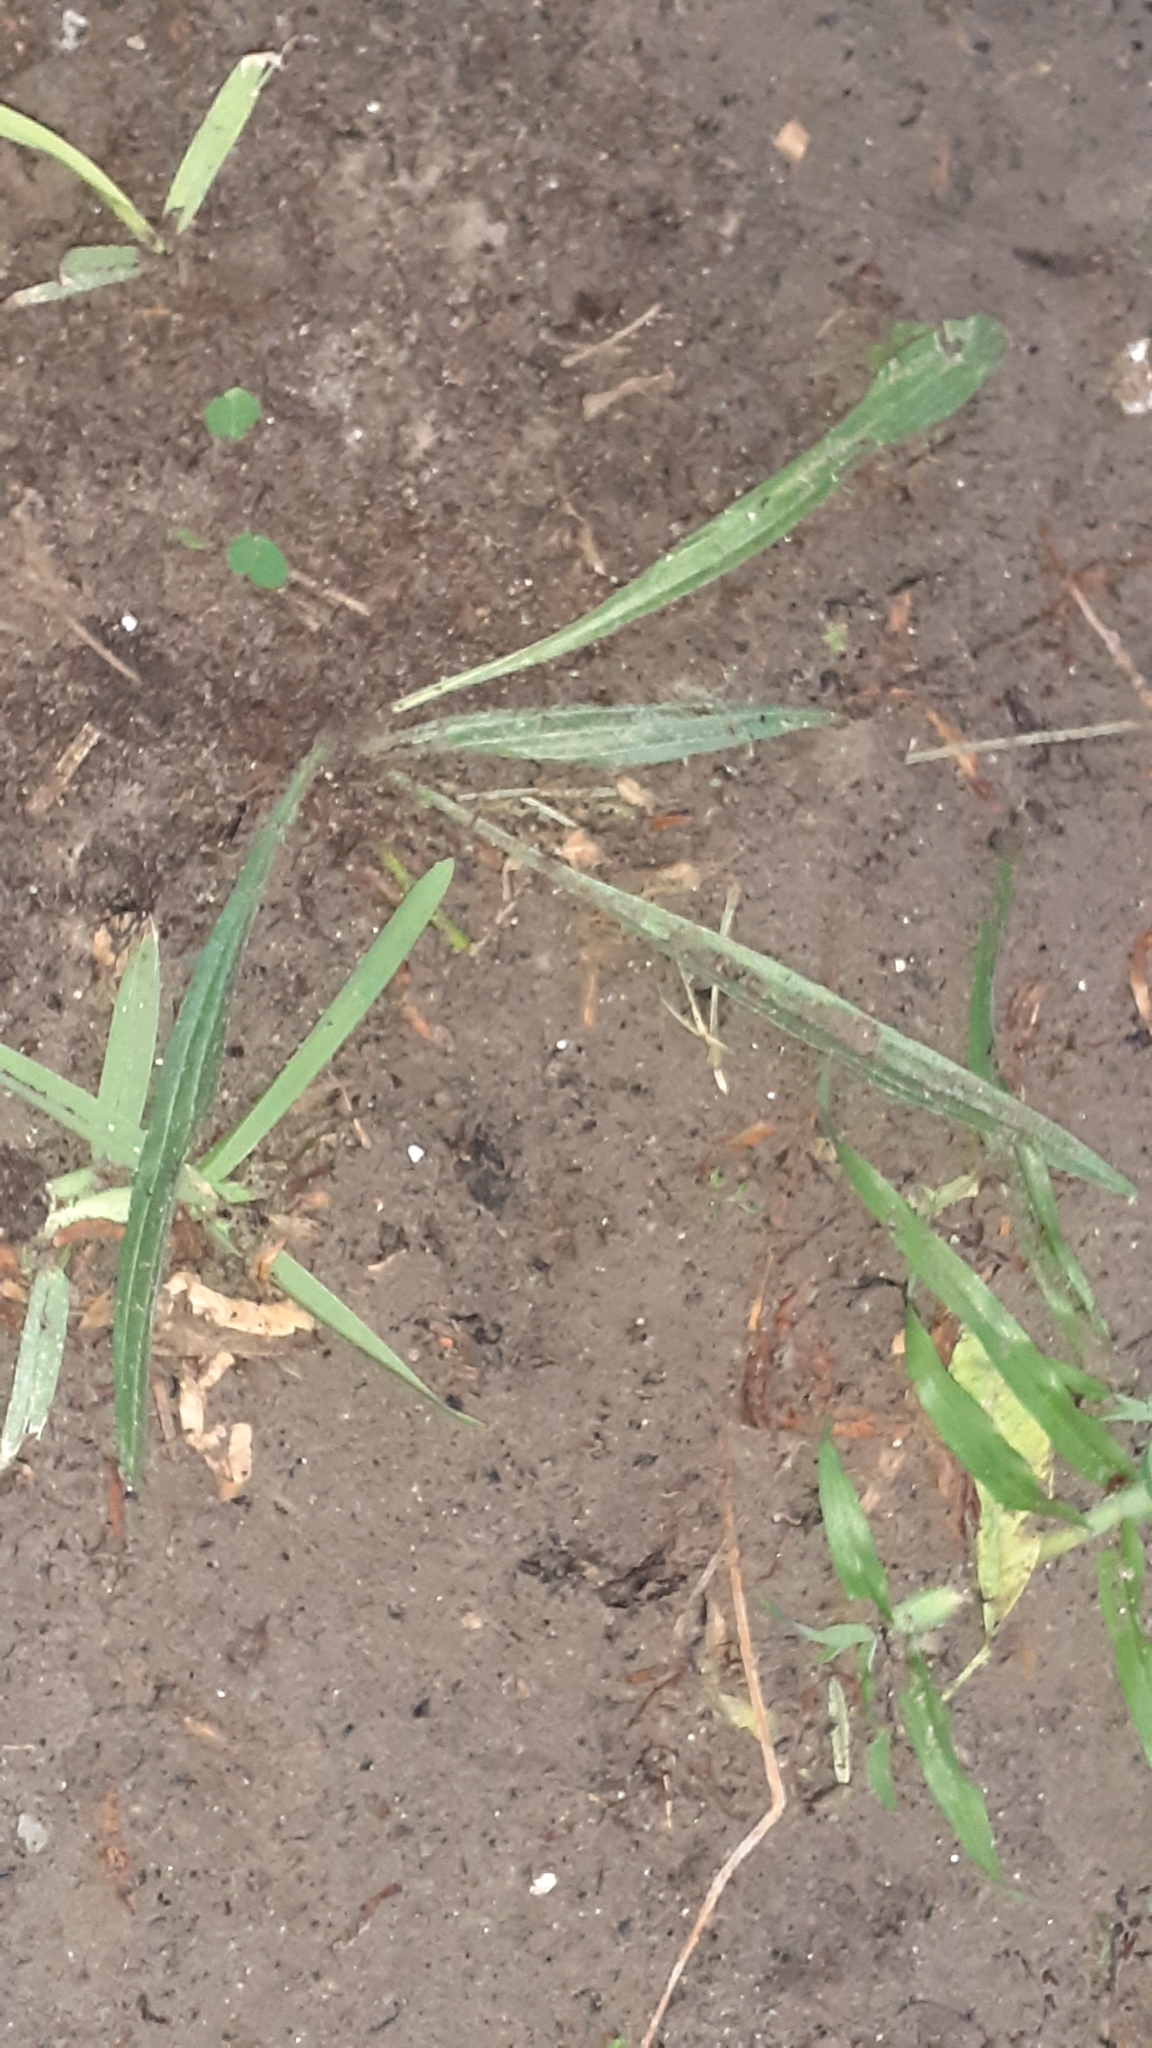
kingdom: Plantae
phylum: Tracheophyta
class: Magnoliopsida
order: Lamiales
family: Plantaginaceae
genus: Plantago
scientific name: Plantago lanceolata
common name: Ribwort plantain
